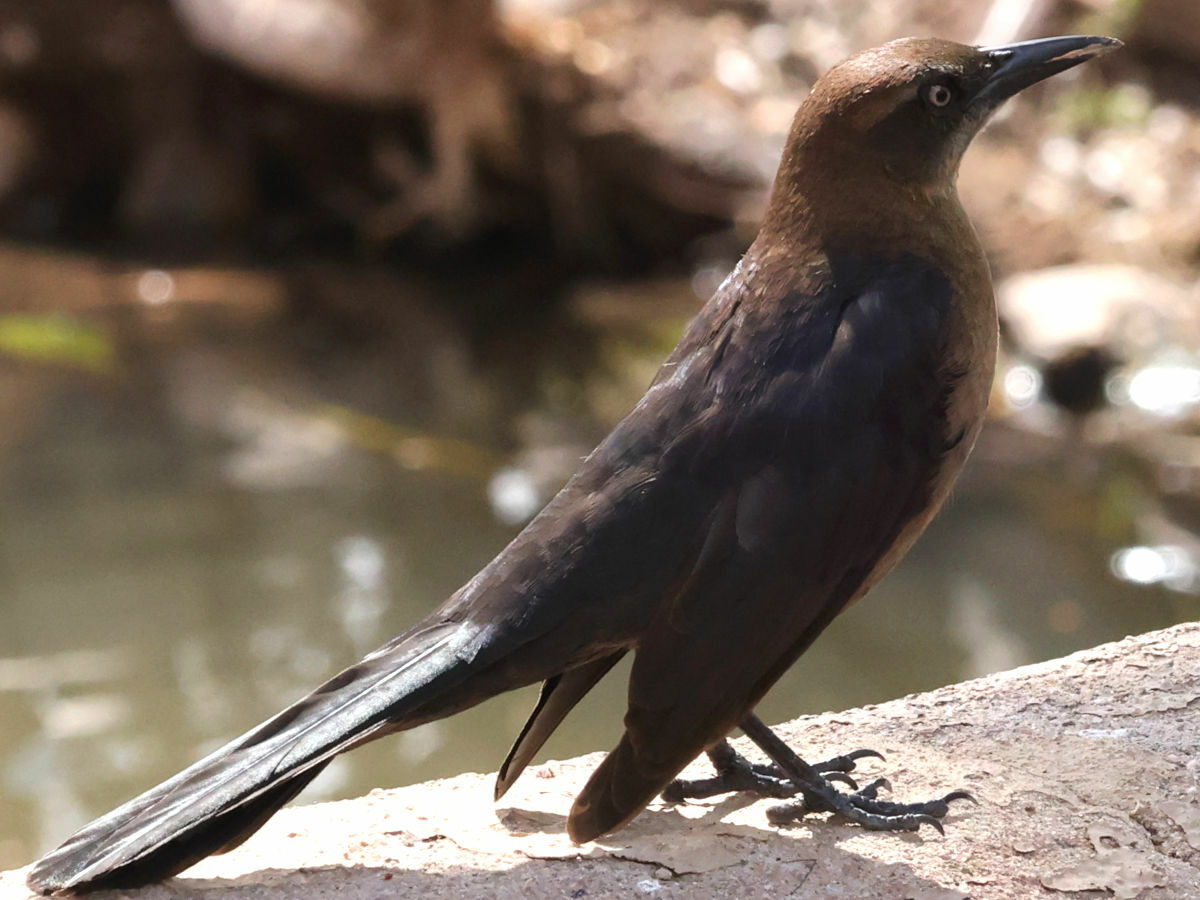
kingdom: Animalia
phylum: Chordata
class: Aves
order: Passeriformes
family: Icteridae
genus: Quiscalus
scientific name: Quiscalus mexicanus
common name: Great-tailed grackle
